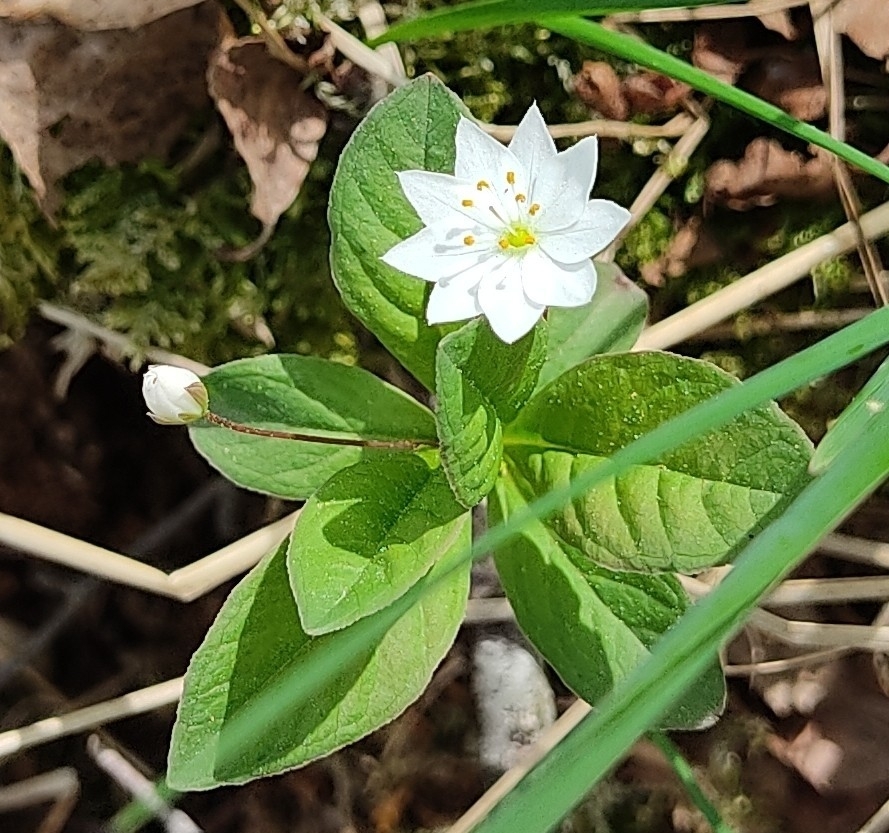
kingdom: Plantae
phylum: Tracheophyta
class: Magnoliopsida
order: Ericales
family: Primulaceae
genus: Lysimachia
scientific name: Lysimachia europaea
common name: Arctic starflower
